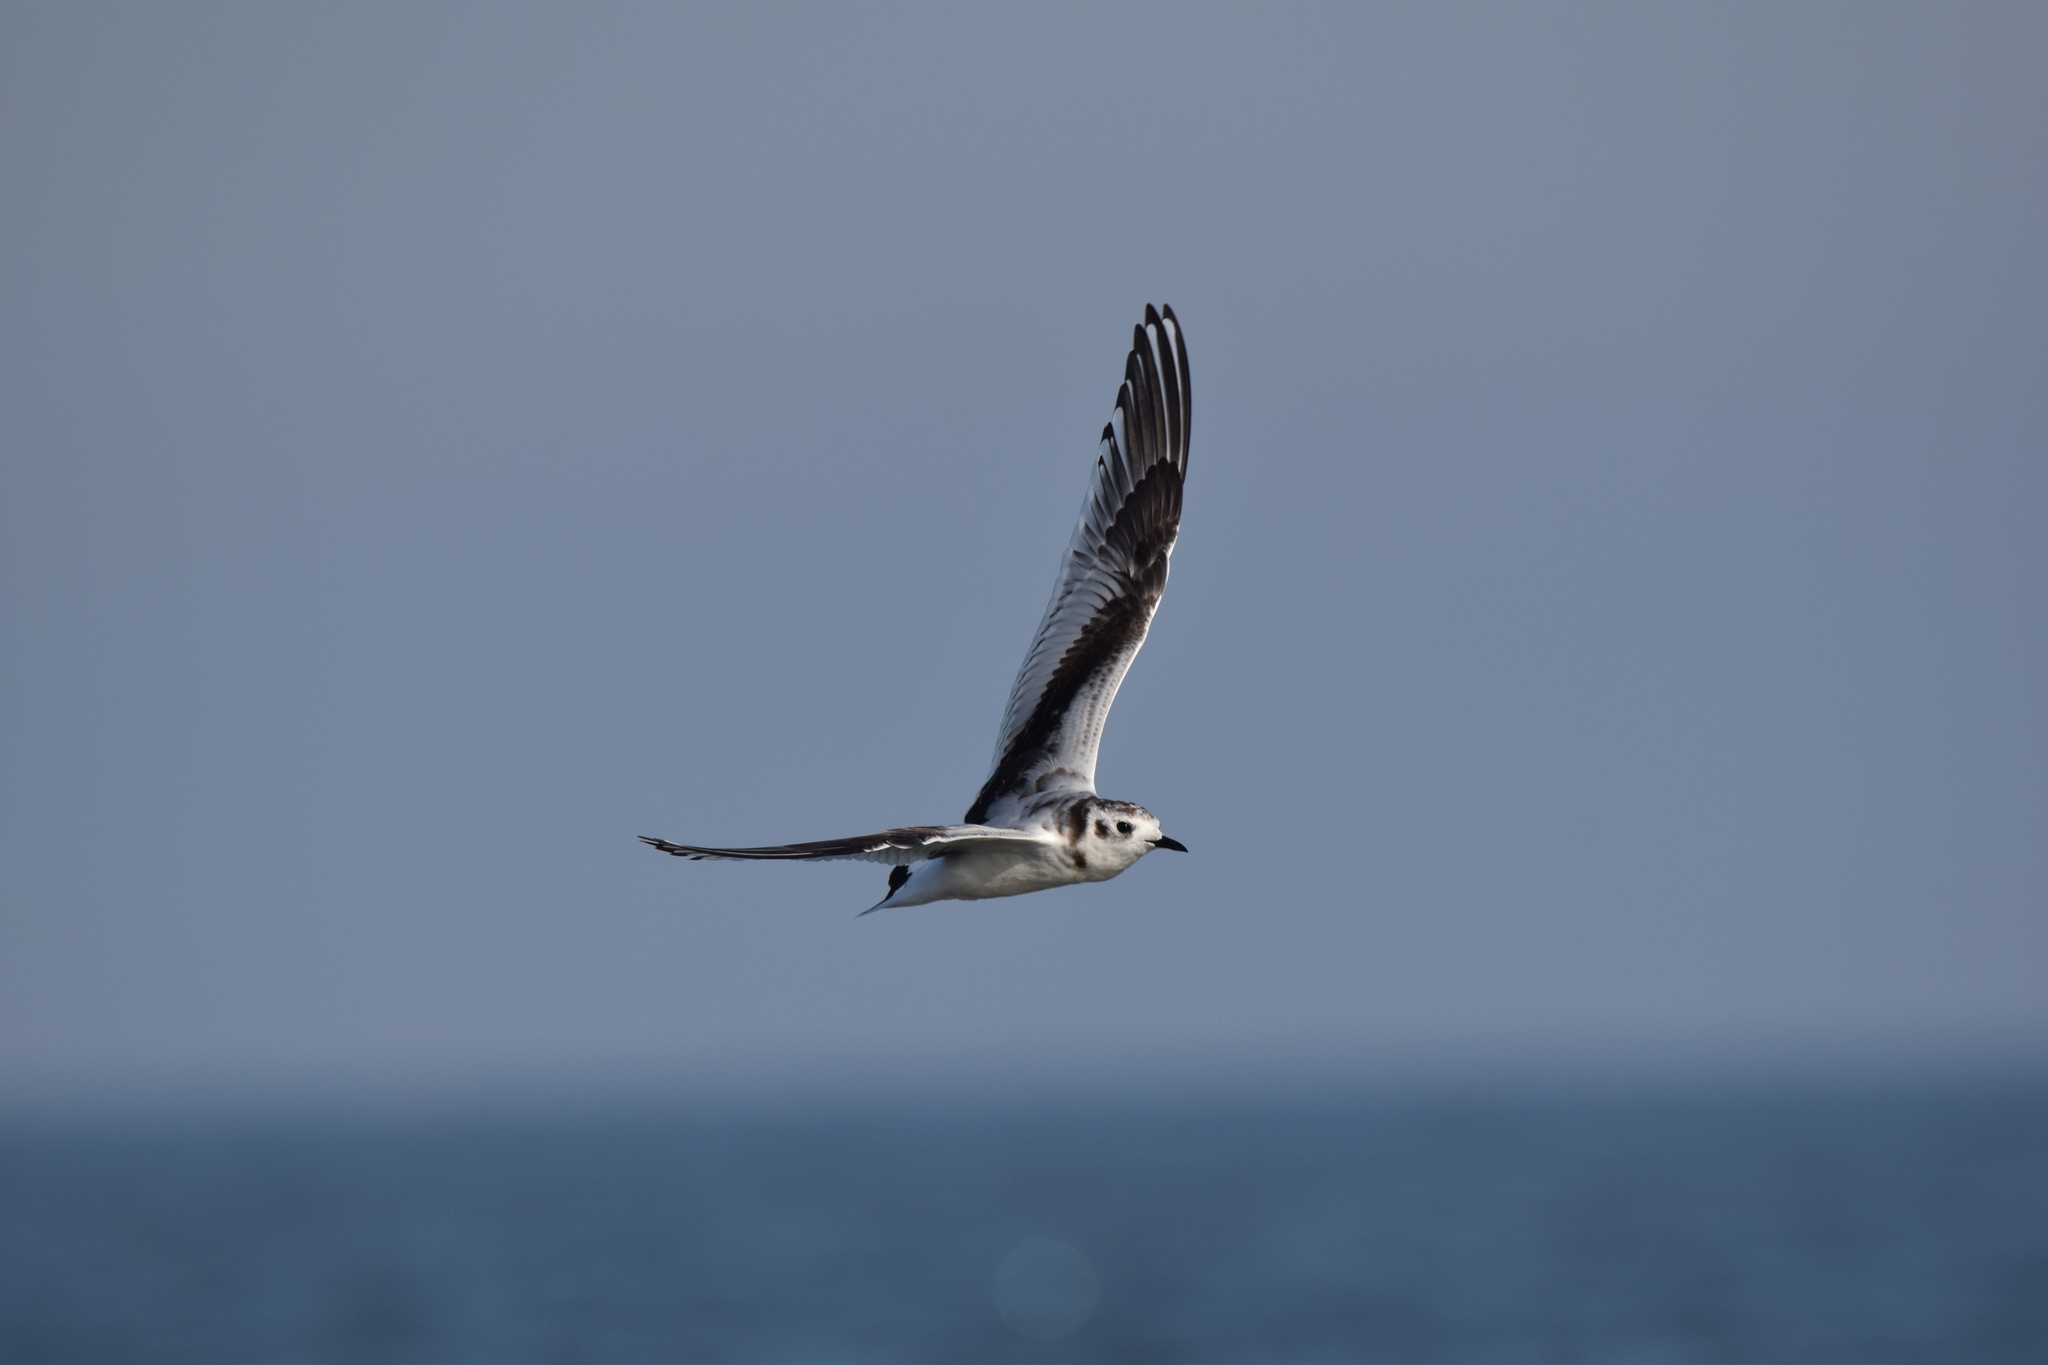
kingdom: Animalia
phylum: Chordata
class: Aves
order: Charadriiformes
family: Laridae
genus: Hydrocoloeus
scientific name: Hydrocoloeus minutus
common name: Little gull
